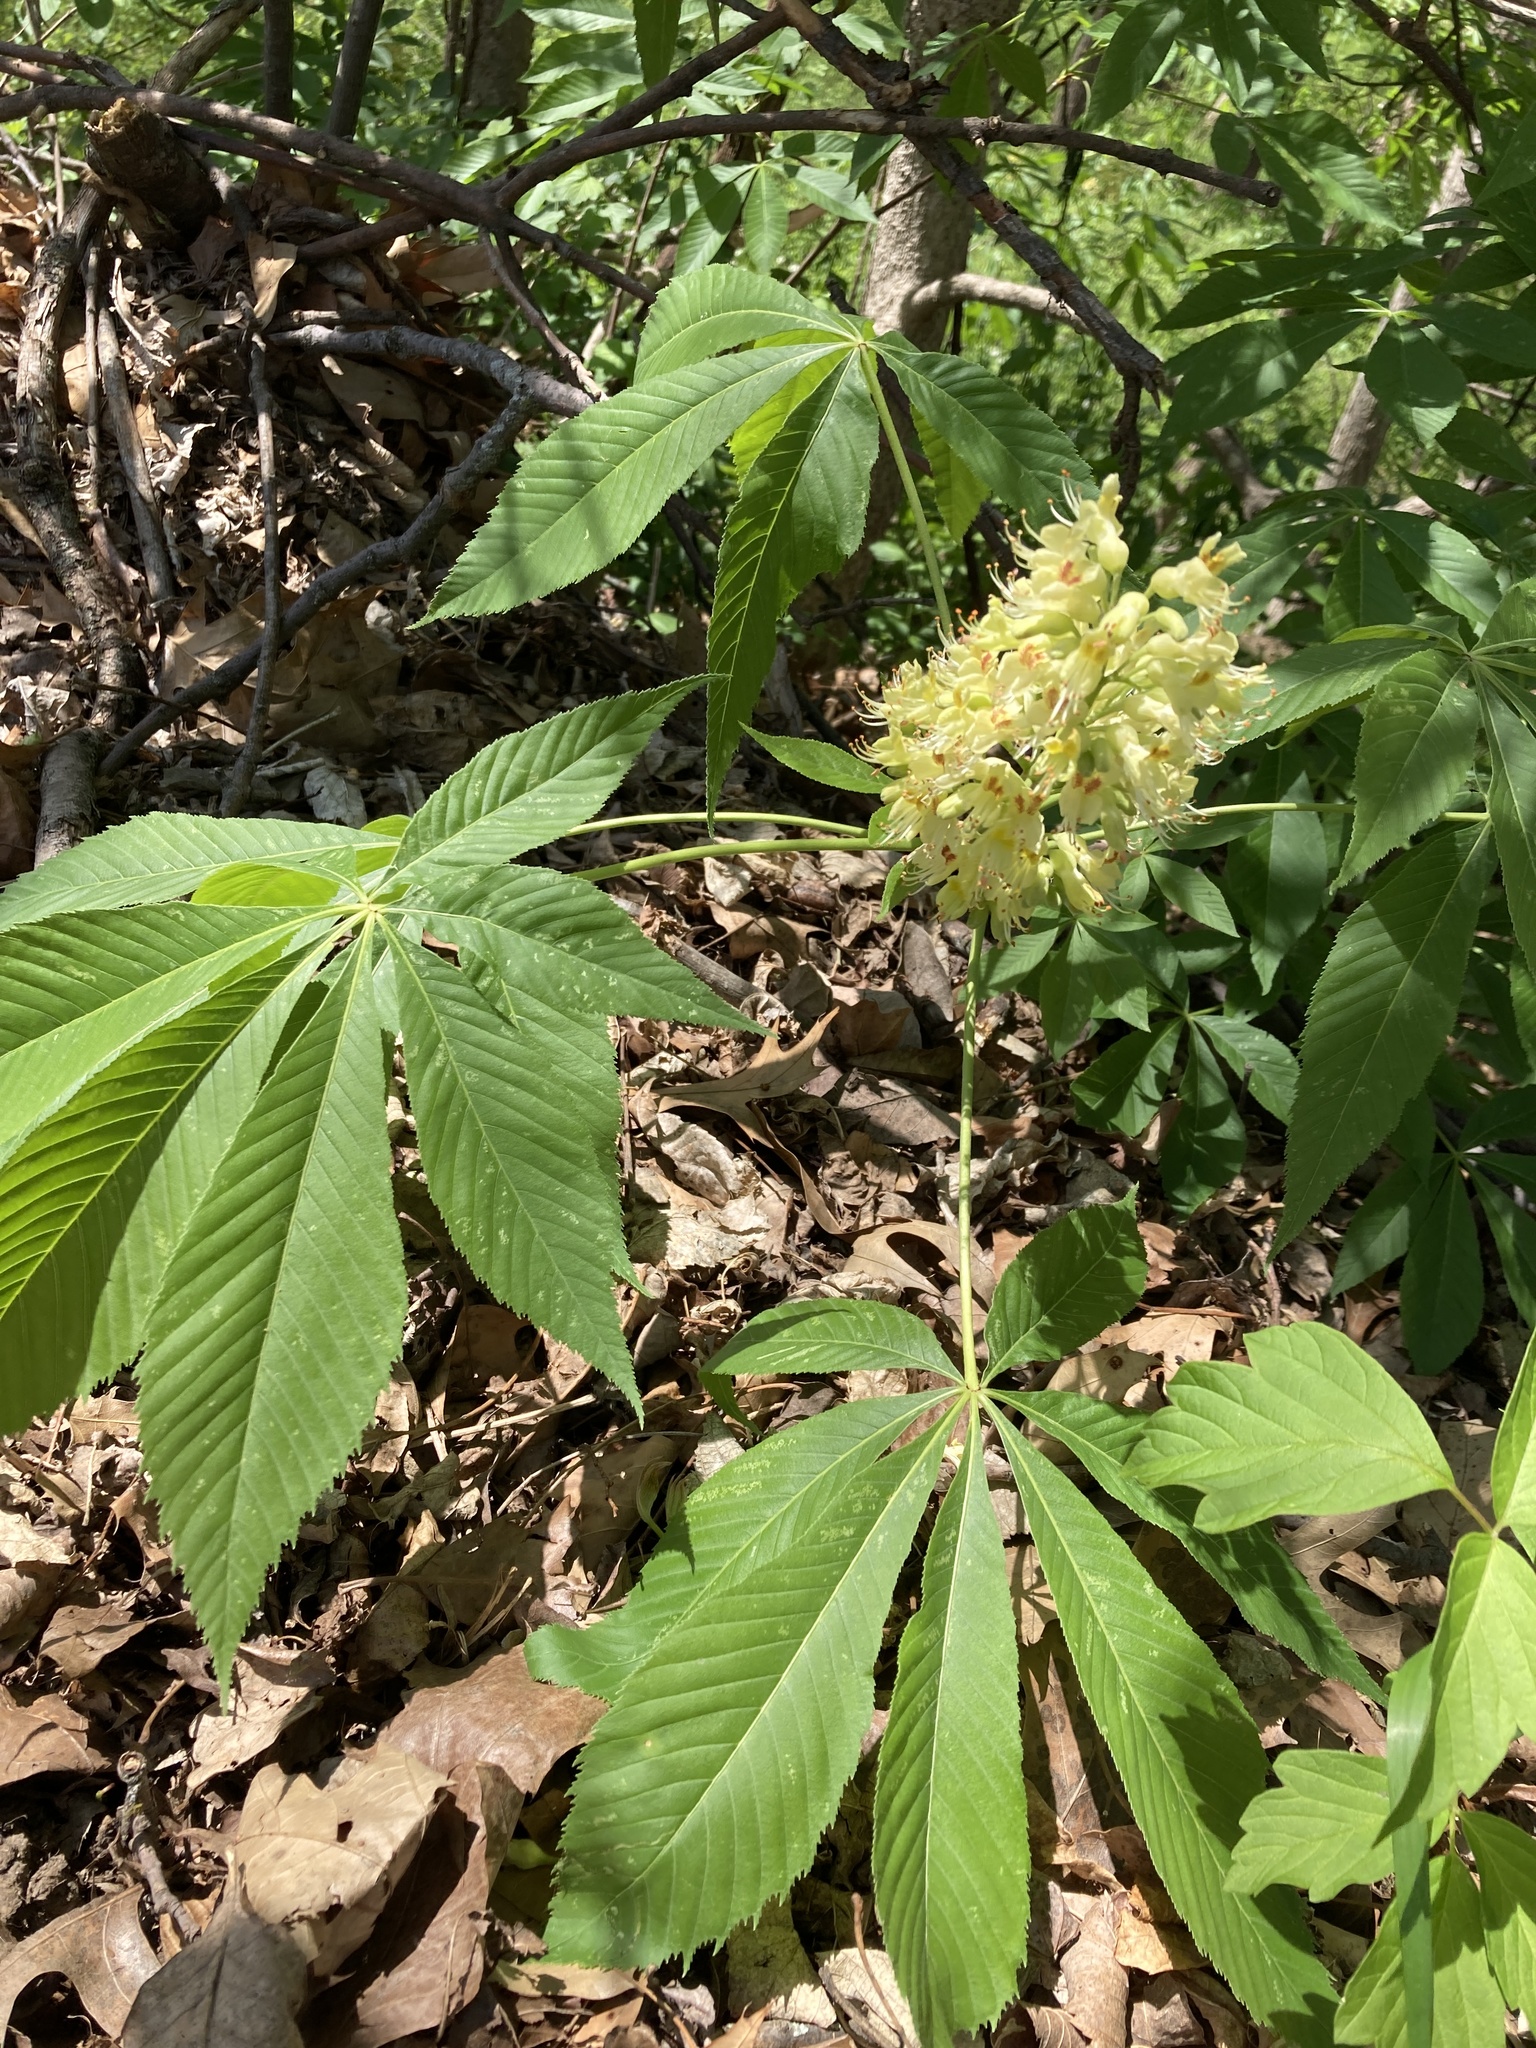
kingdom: Plantae
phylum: Tracheophyta
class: Magnoliopsida
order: Sapindales
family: Sapindaceae
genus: Aesculus
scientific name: Aesculus glabra
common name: Ohio buckeye
